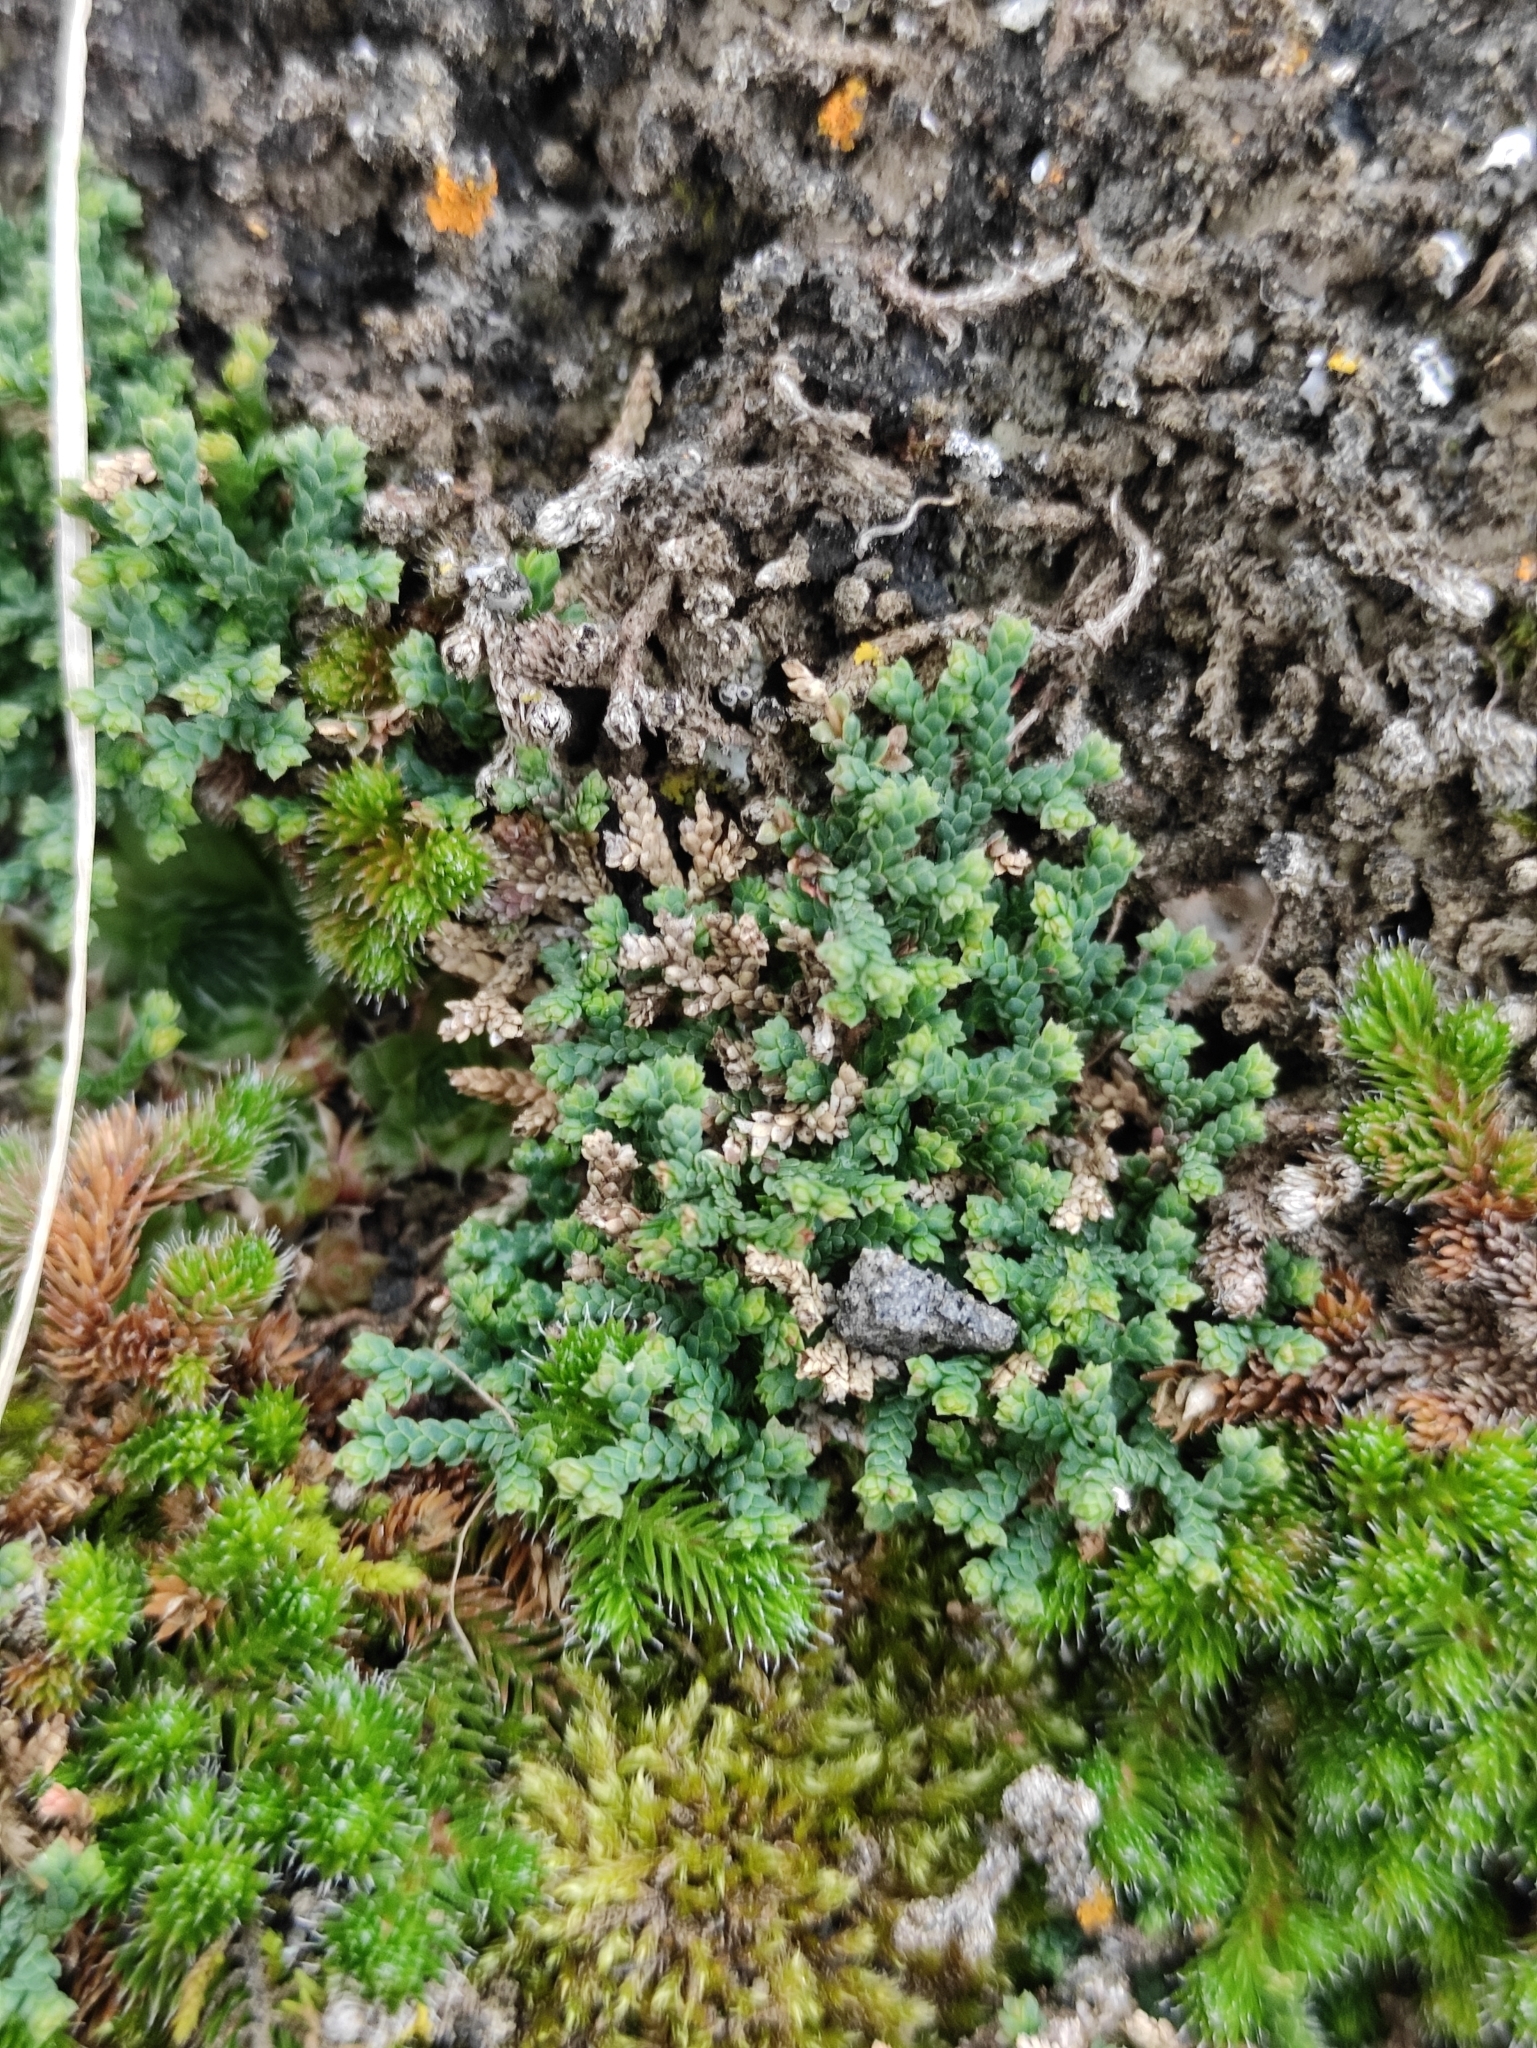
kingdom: Plantae
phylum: Tracheophyta
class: Lycopodiopsida
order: Selaginellales
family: Selaginellaceae
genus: Selaginella
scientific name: Selaginella sanguinolenta
